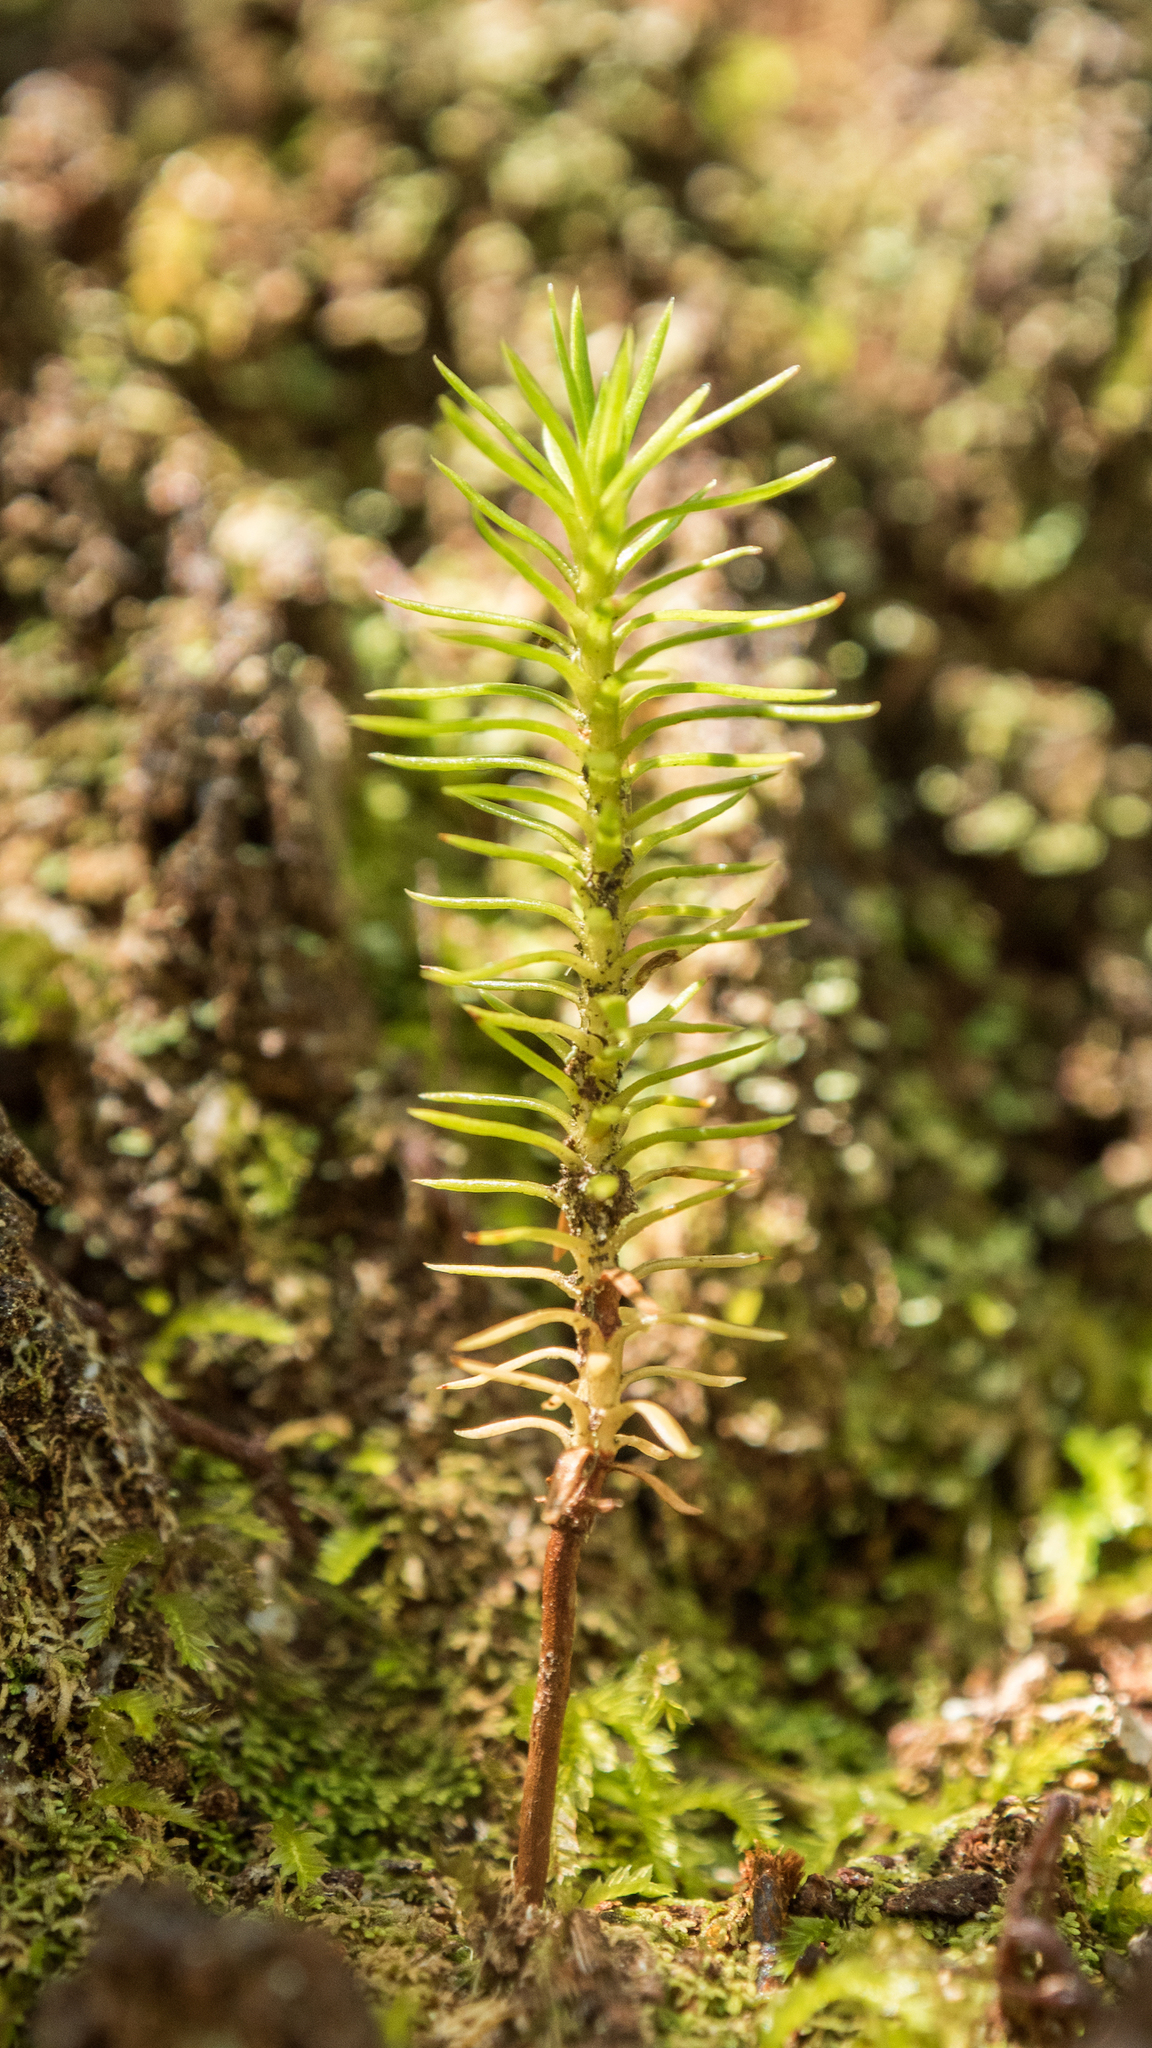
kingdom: Plantae
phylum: Tracheophyta
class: Pinopsida
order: Pinales
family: Cupressaceae
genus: Libocedrus
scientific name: Libocedrus bidwillii
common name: Cedar
